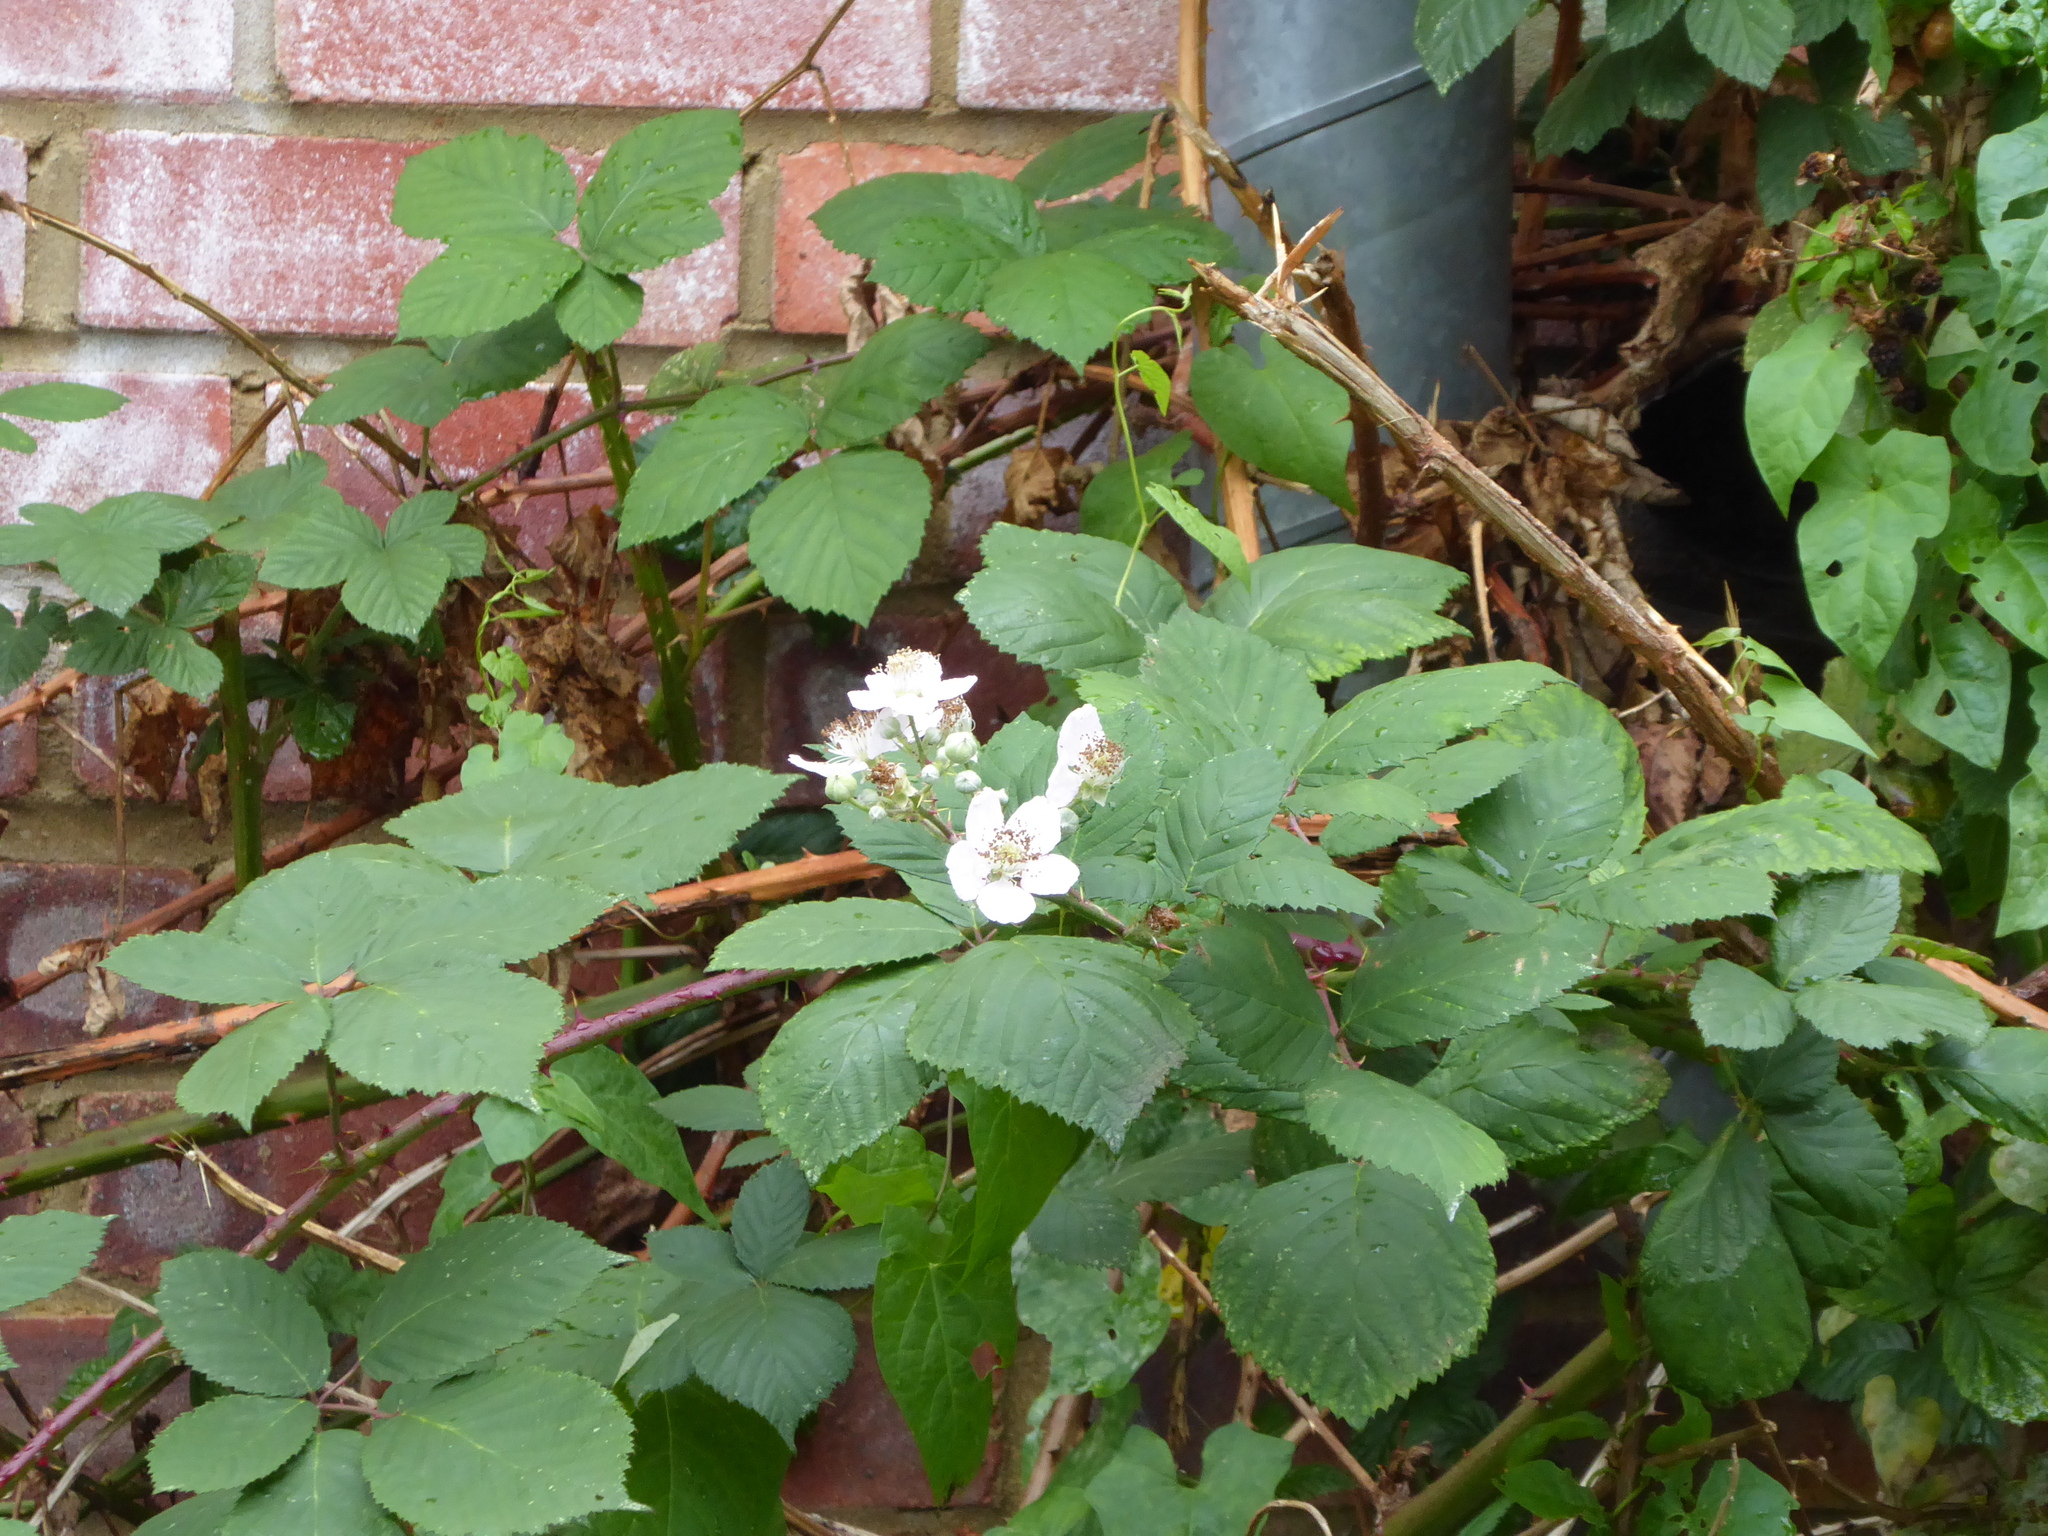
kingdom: Plantae
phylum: Tracheophyta
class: Magnoliopsida
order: Rosales
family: Rosaceae
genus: Rubus
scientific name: Rubus
